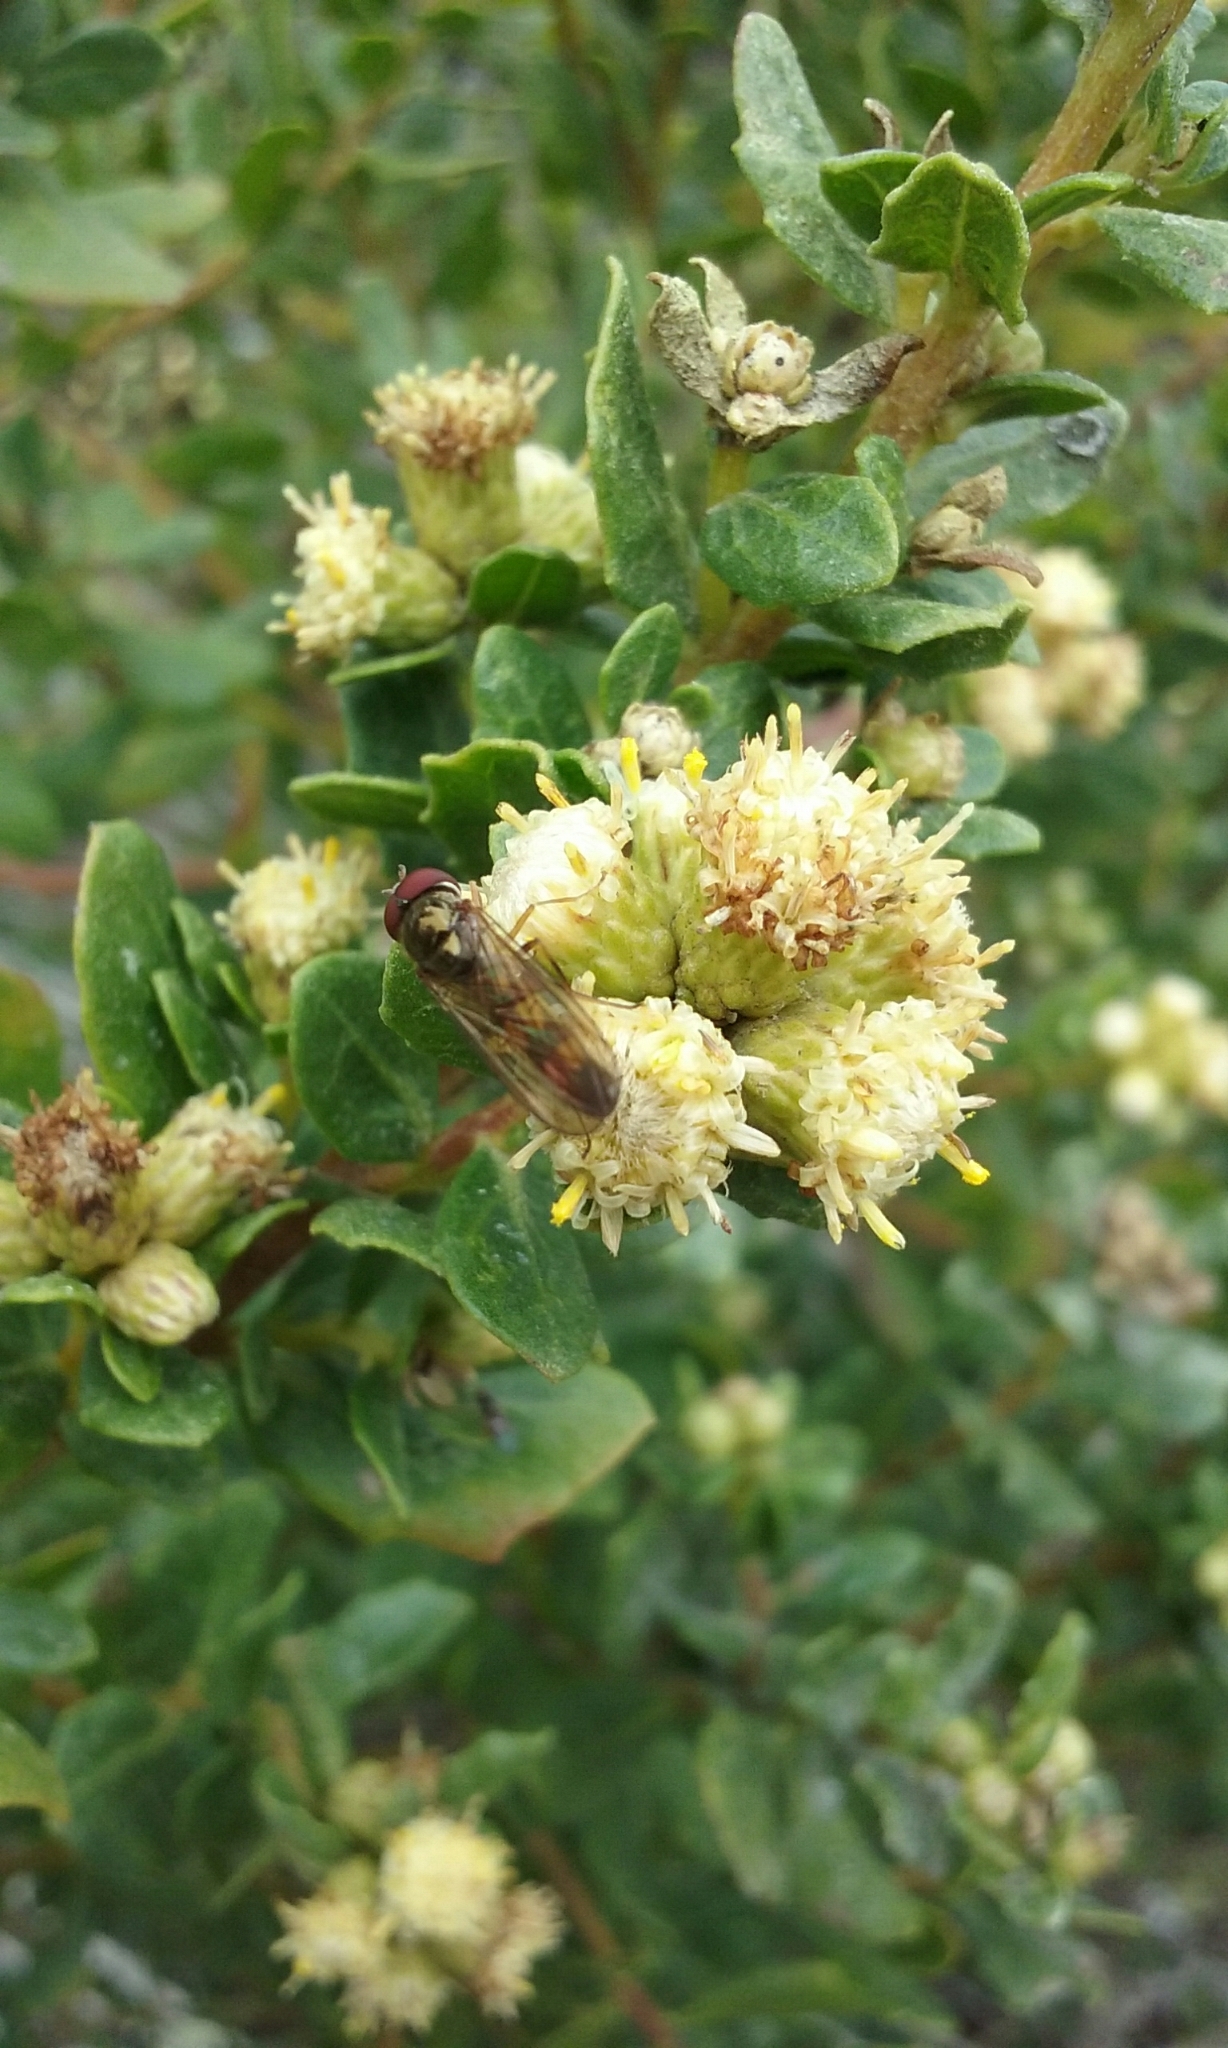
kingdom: Animalia
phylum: Arthropoda
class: Insecta
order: Diptera
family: Syrphidae
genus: Melanostoma
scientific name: Melanostoma mellina
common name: Hover fly
